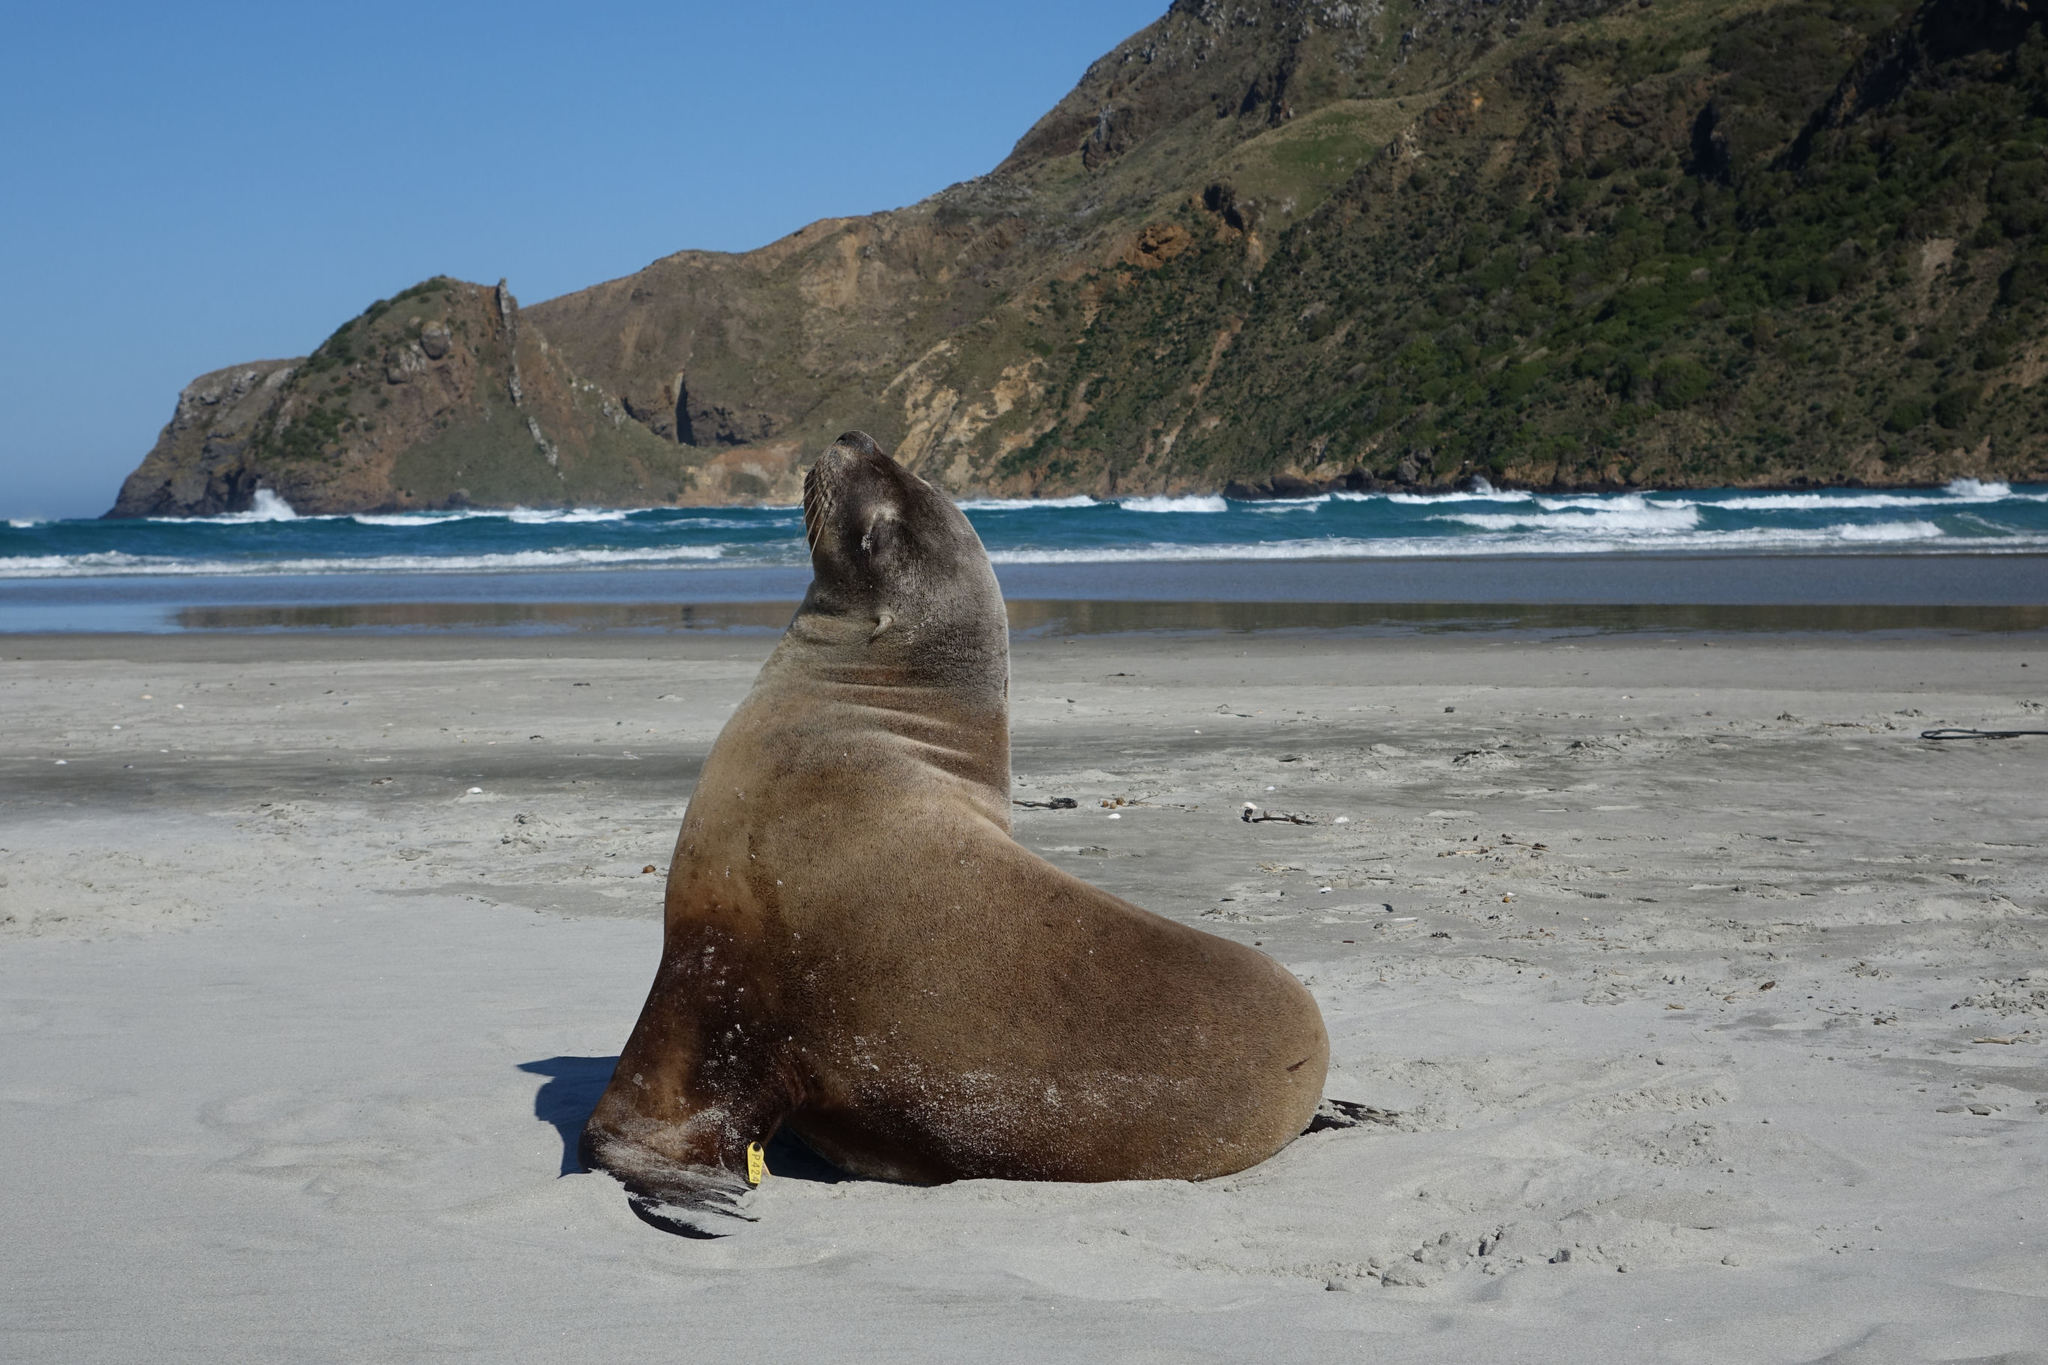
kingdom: Animalia
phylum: Chordata
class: Mammalia
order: Carnivora
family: Otariidae
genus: Phocarctos
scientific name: Phocarctos hookeri
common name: New zealand sea lion
